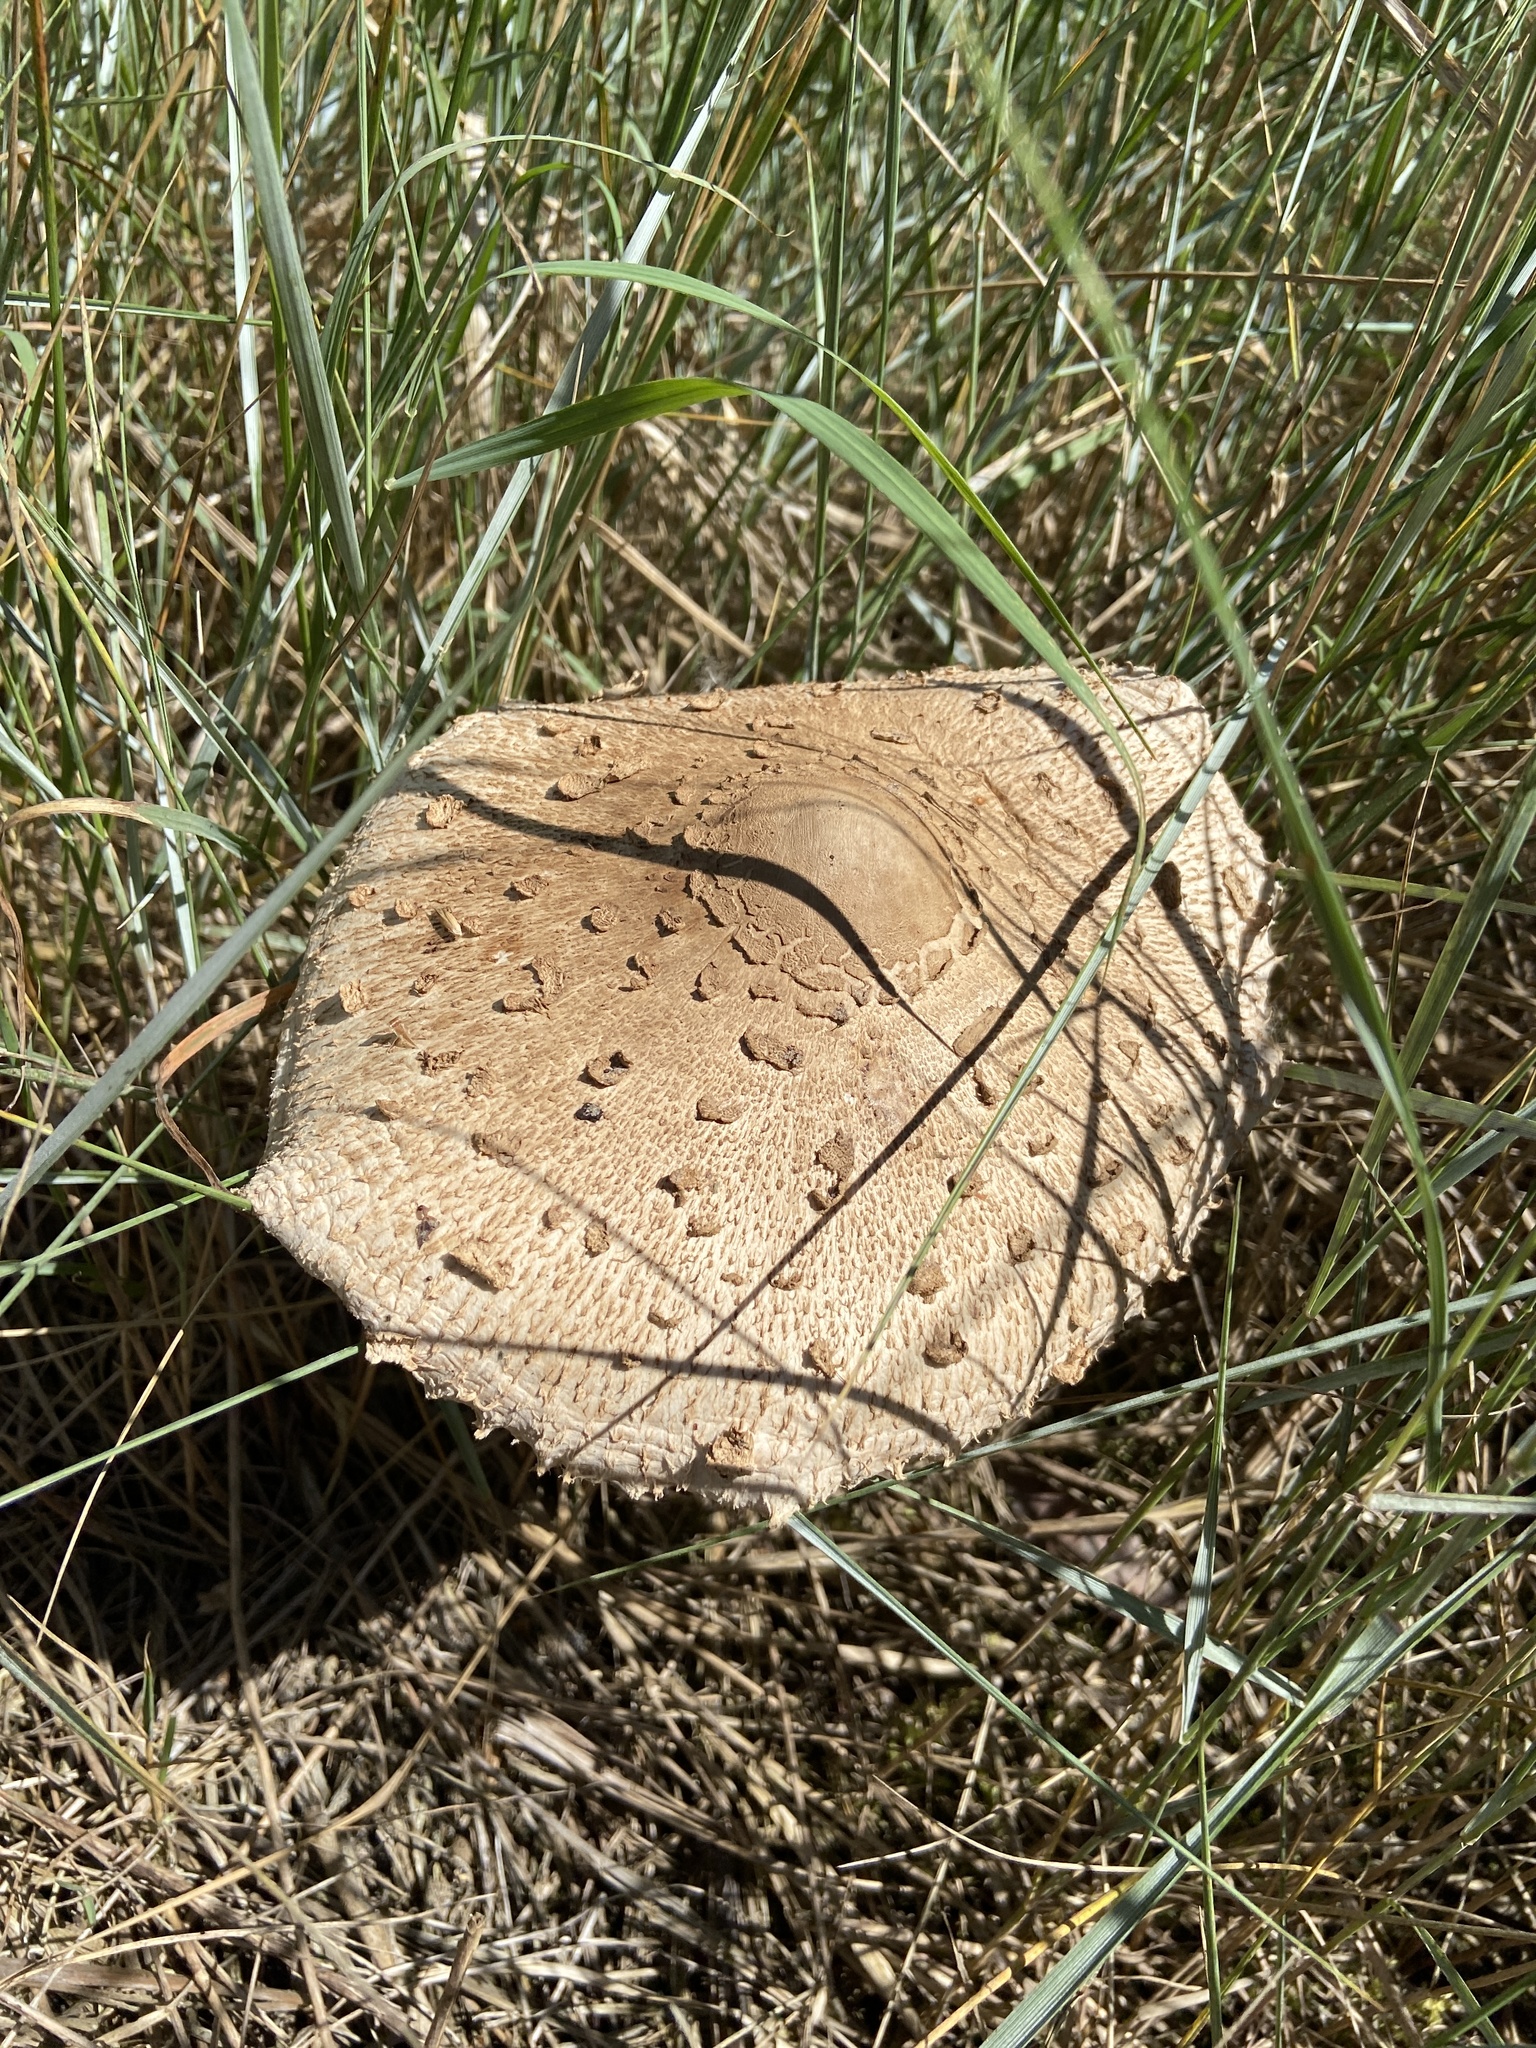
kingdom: Fungi
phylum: Basidiomycota
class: Agaricomycetes
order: Agaricales
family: Agaricaceae
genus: Macrolepiota
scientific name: Macrolepiota procera
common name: Parasol
